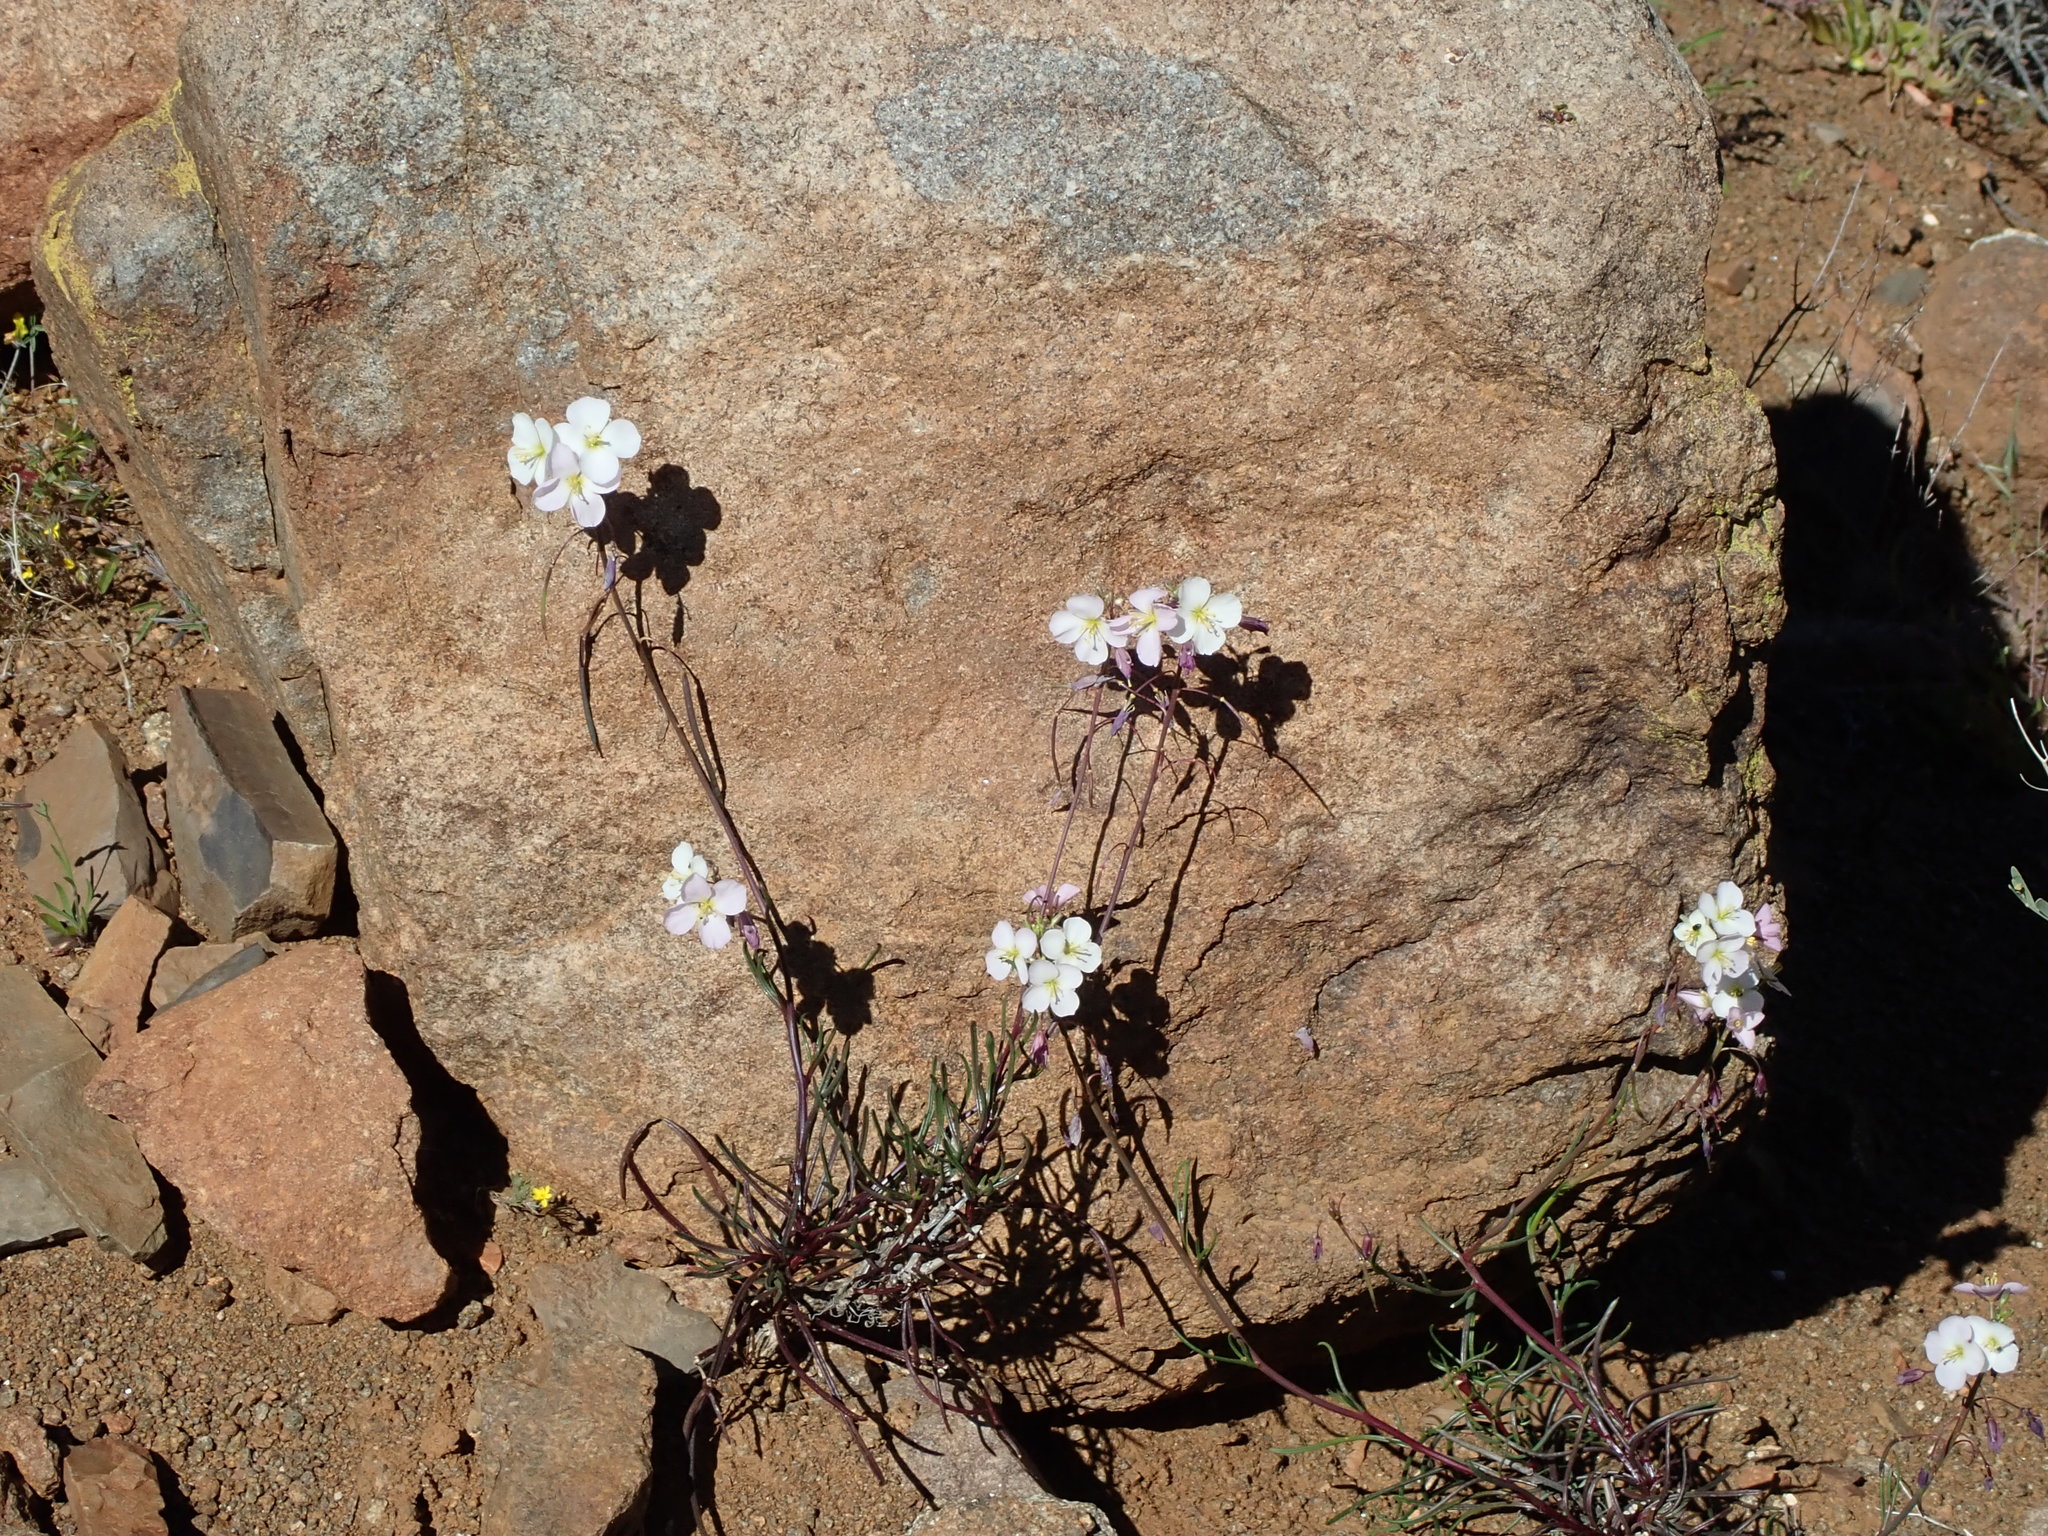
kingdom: Plantae
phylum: Tracheophyta
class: Magnoliopsida
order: Brassicales
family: Brassicaceae
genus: Heliophila
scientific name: Heliophila carnosa
